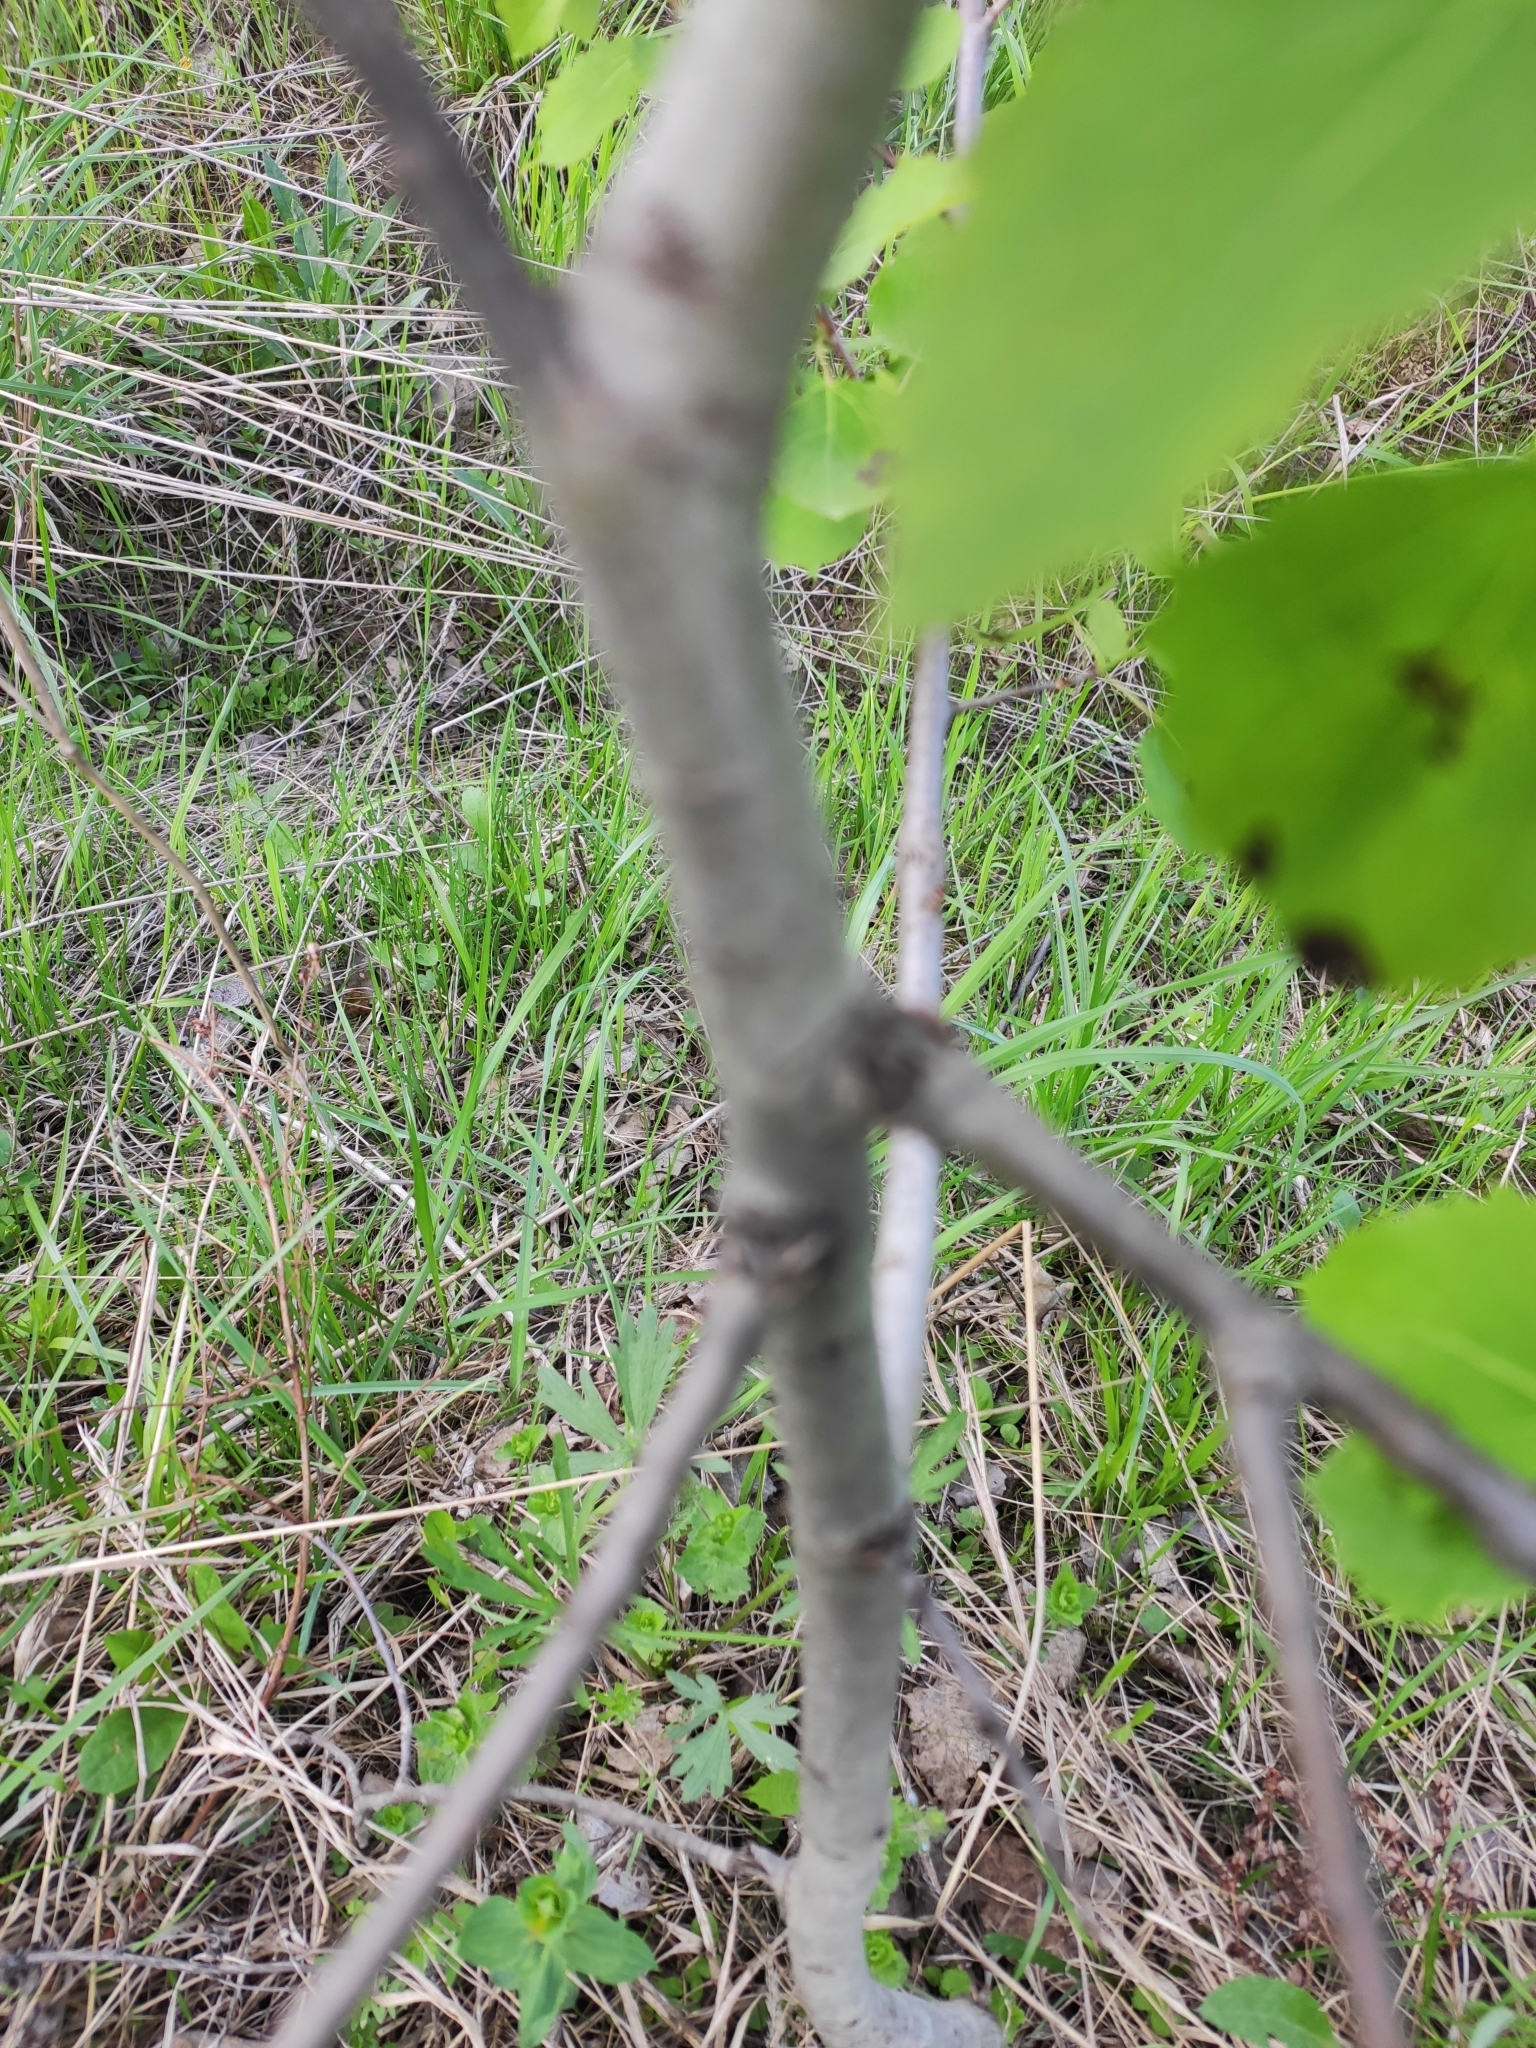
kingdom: Plantae
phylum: Tracheophyta
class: Magnoliopsida
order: Malpighiales
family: Salicaceae
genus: Populus
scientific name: Populus tremula
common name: European aspen
